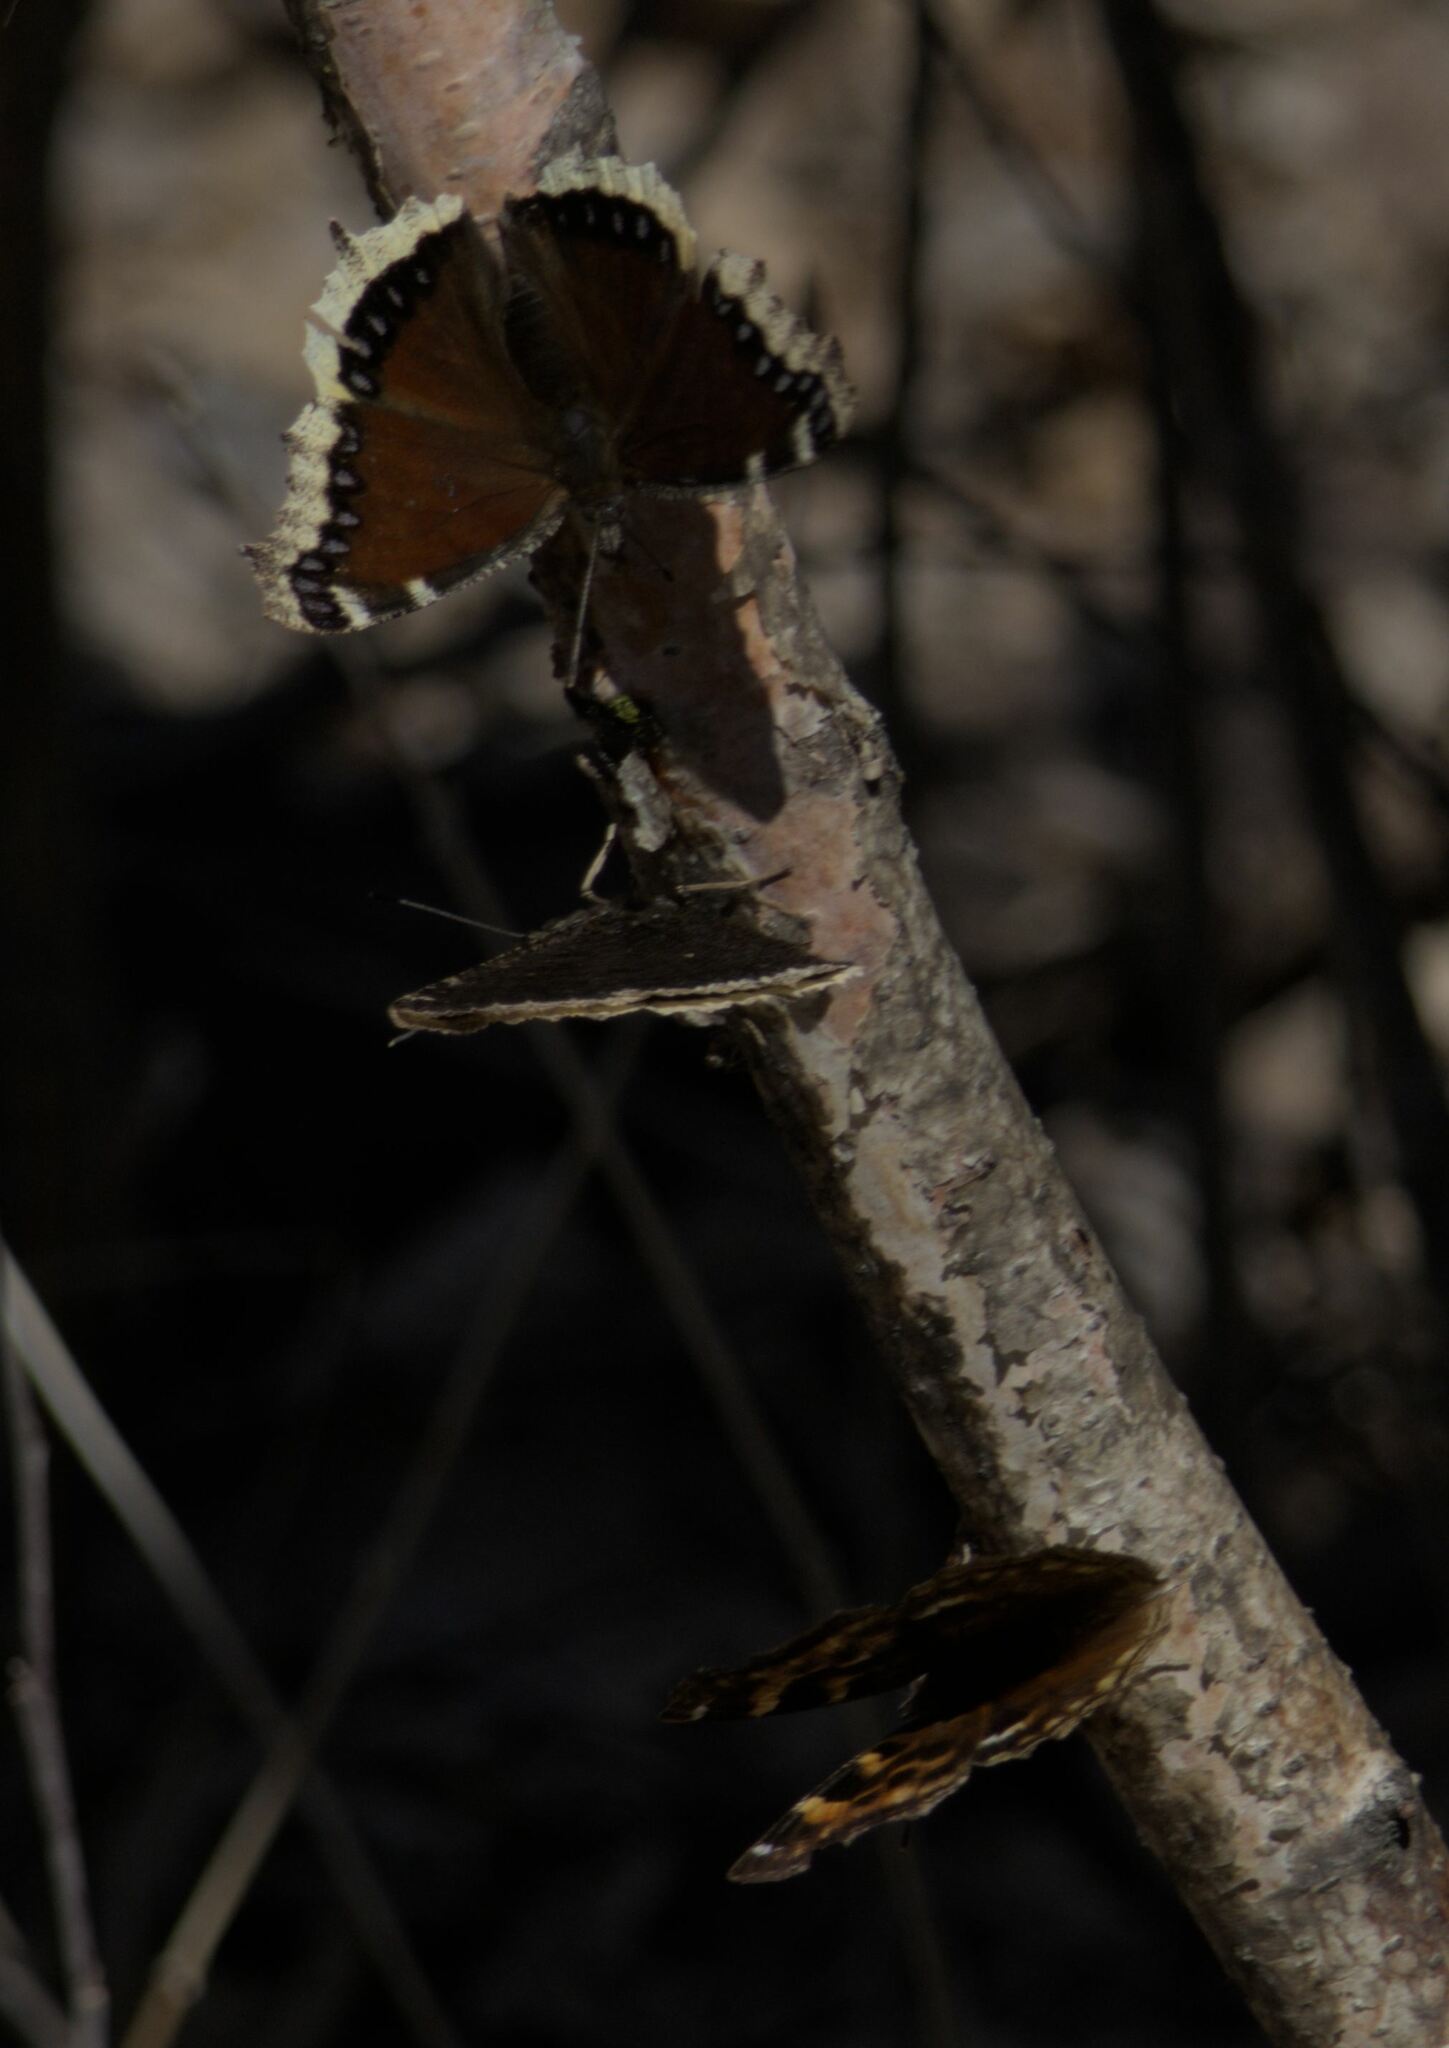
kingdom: Animalia
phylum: Arthropoda
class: Insecta
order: Lepidoptera
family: Nymphalidae
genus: Nymphalis
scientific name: Nymphalis antiopa
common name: Camberwell beauty
